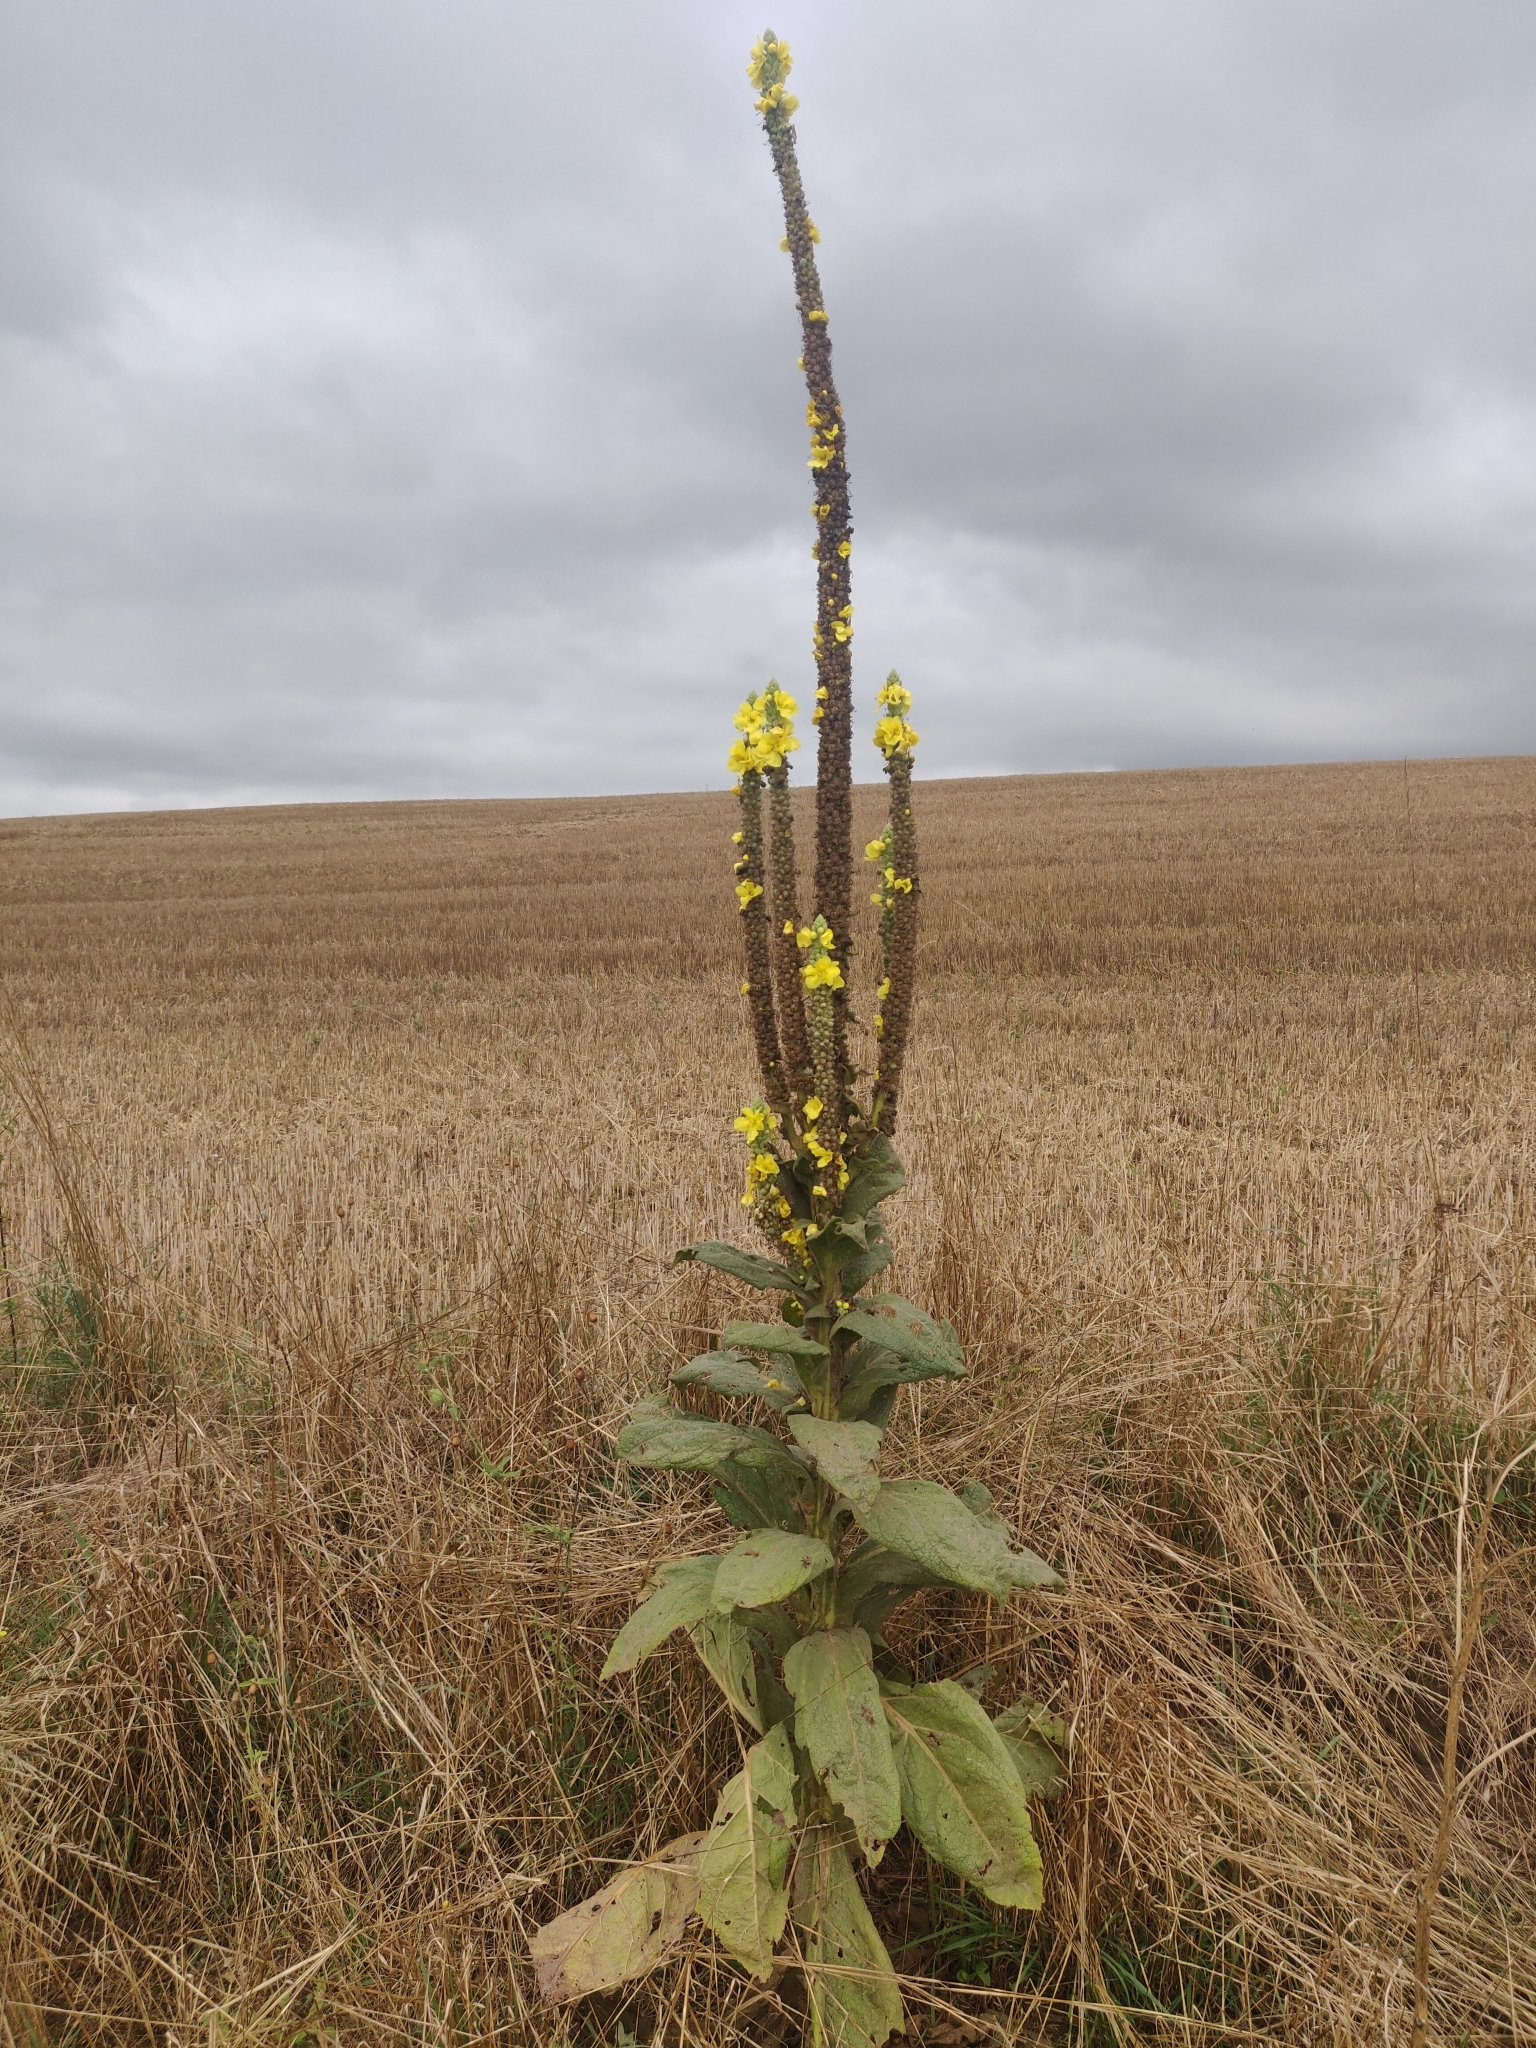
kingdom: Plantae
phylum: Tracheophyta
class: Magnoliopsida
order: Lamiales
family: Scrophulariaceae
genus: Verbascum
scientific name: Verbascum densiflorum
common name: Dense-flowered mullein
